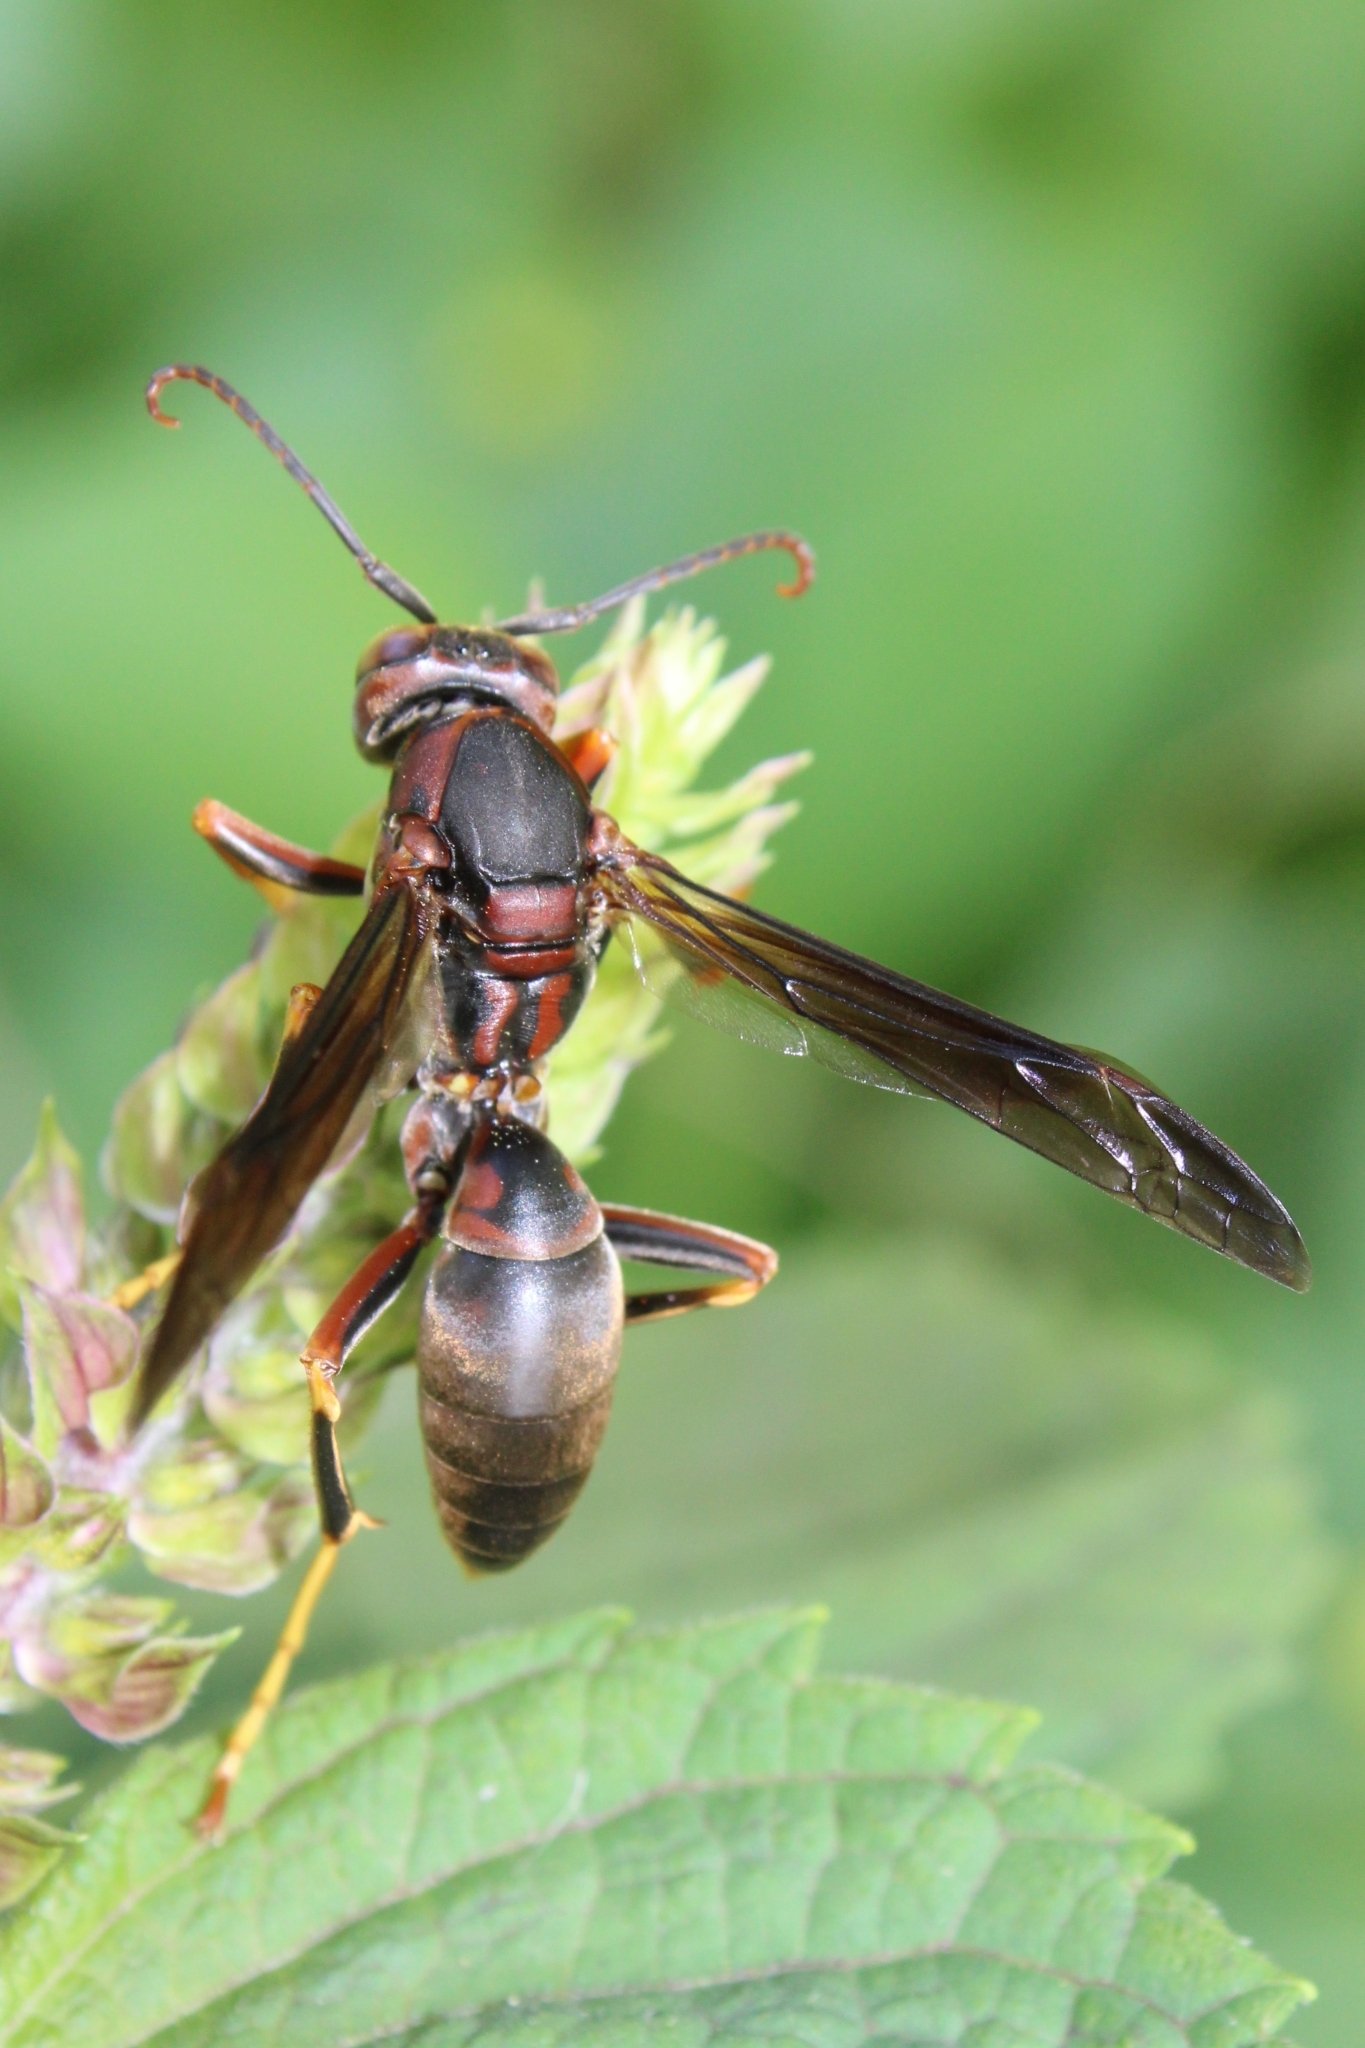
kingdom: Animalia
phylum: Arthropoda
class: Insecta
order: Hymenoptera
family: Eumenidae
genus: Polistes
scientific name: Polistes metricus
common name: Metric paper wasp
